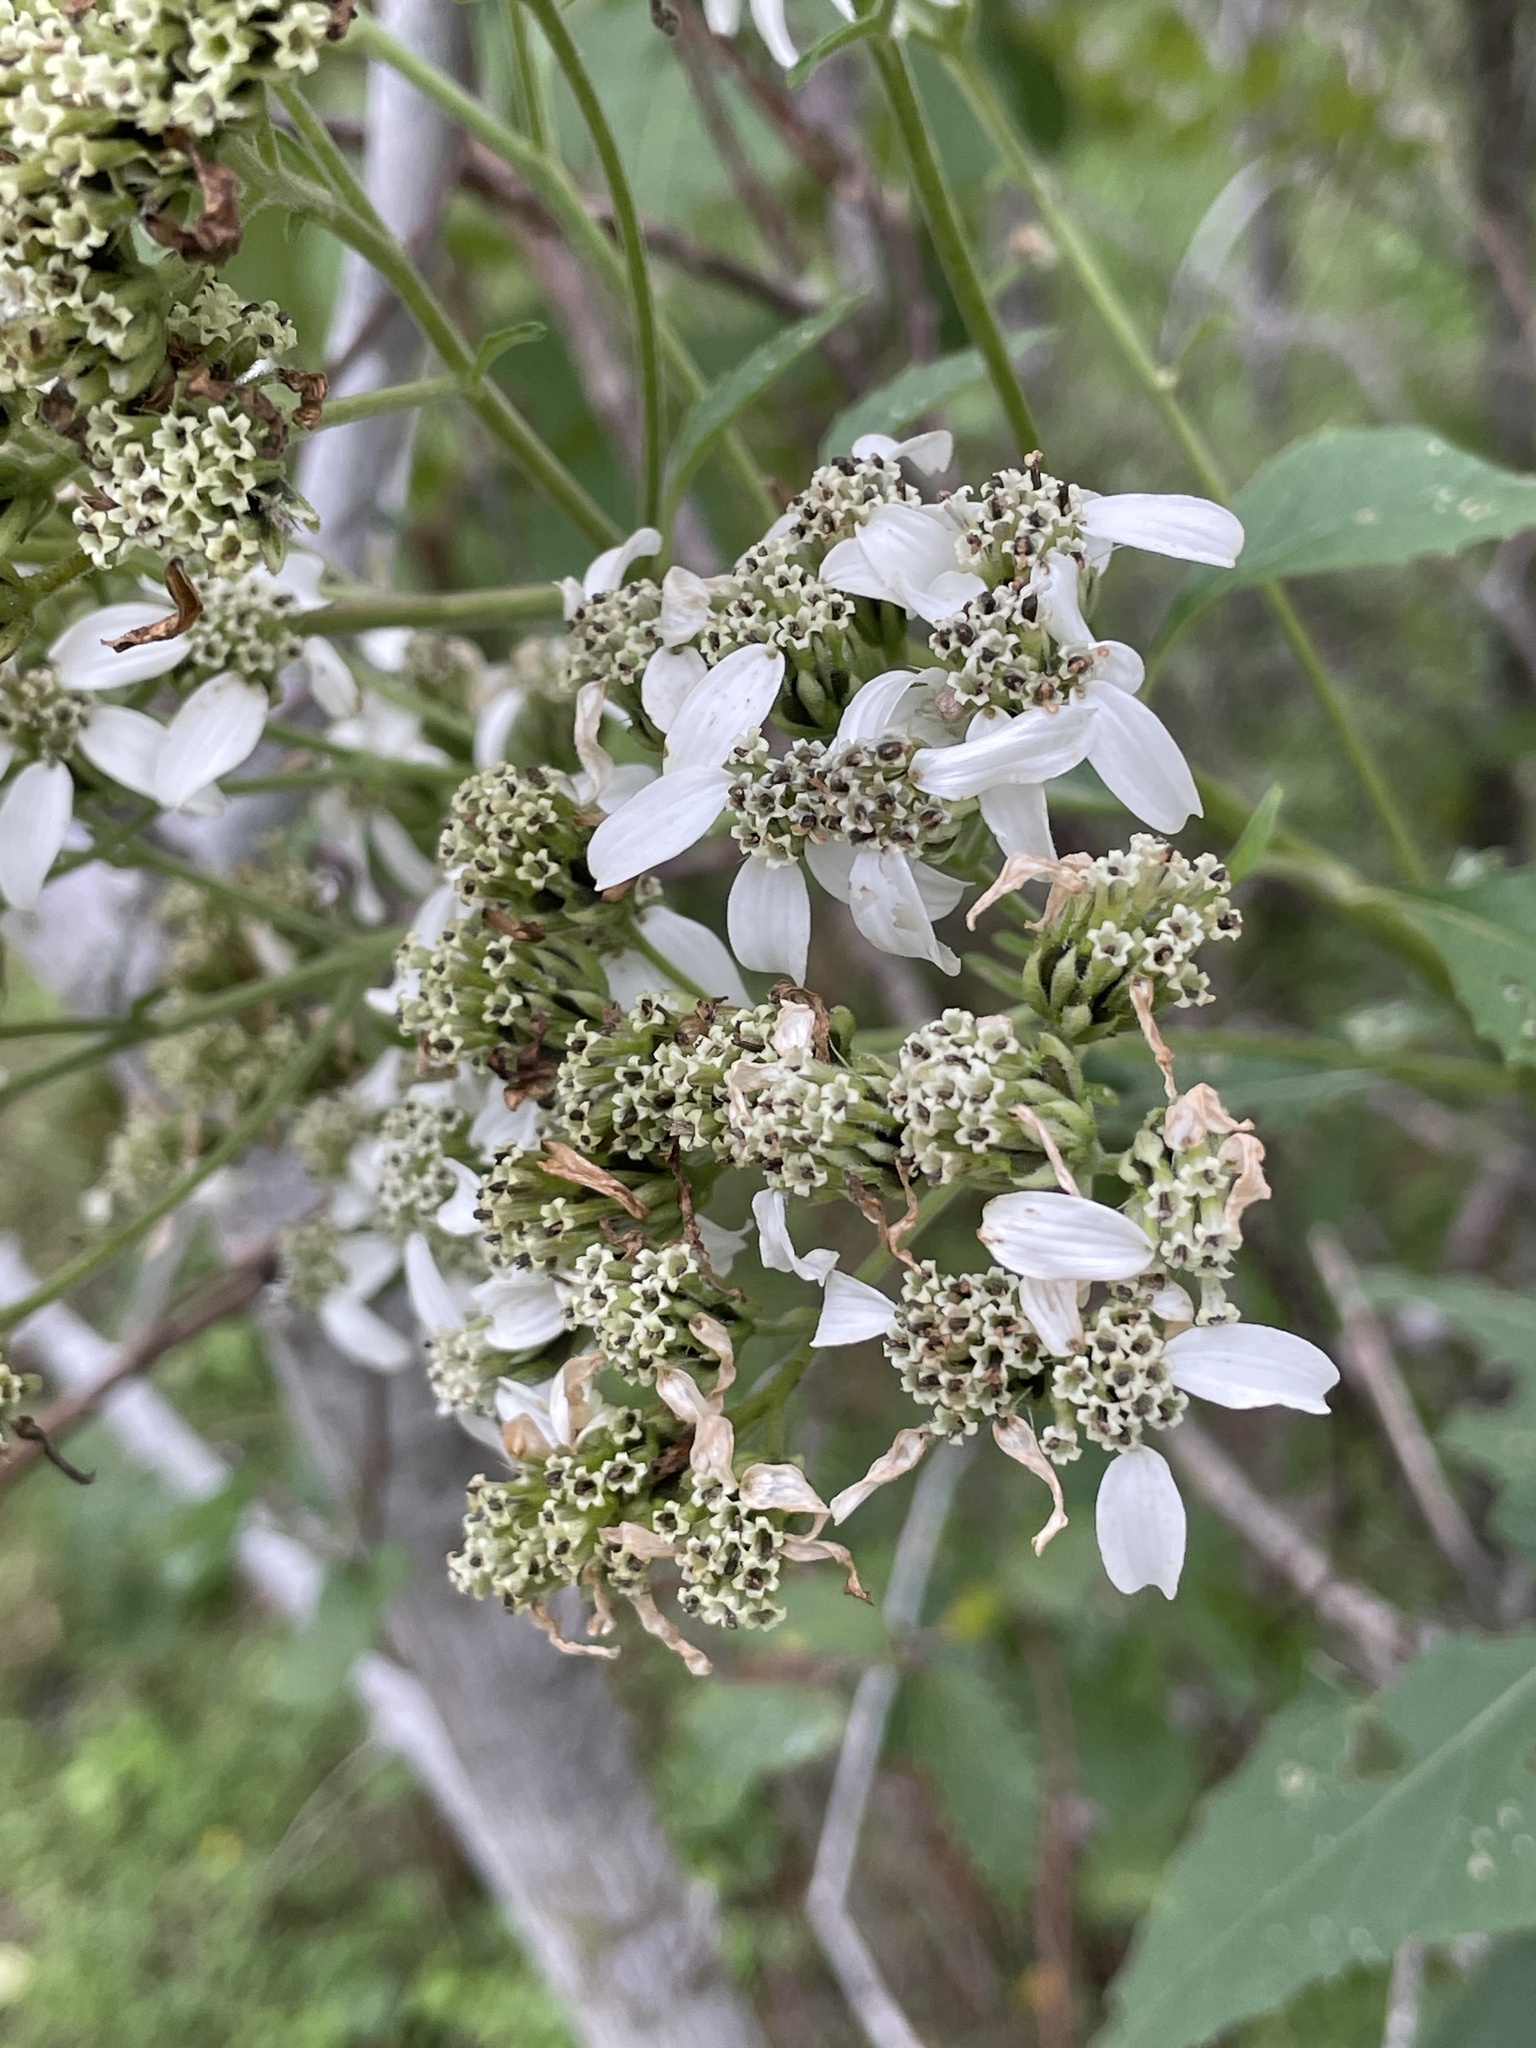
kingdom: Plantae
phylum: Tracheophyta
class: Magnoliopsida
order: Asterales
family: Asteraceae
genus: Verbesina
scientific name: Verbesina virginica
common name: Frostweed
